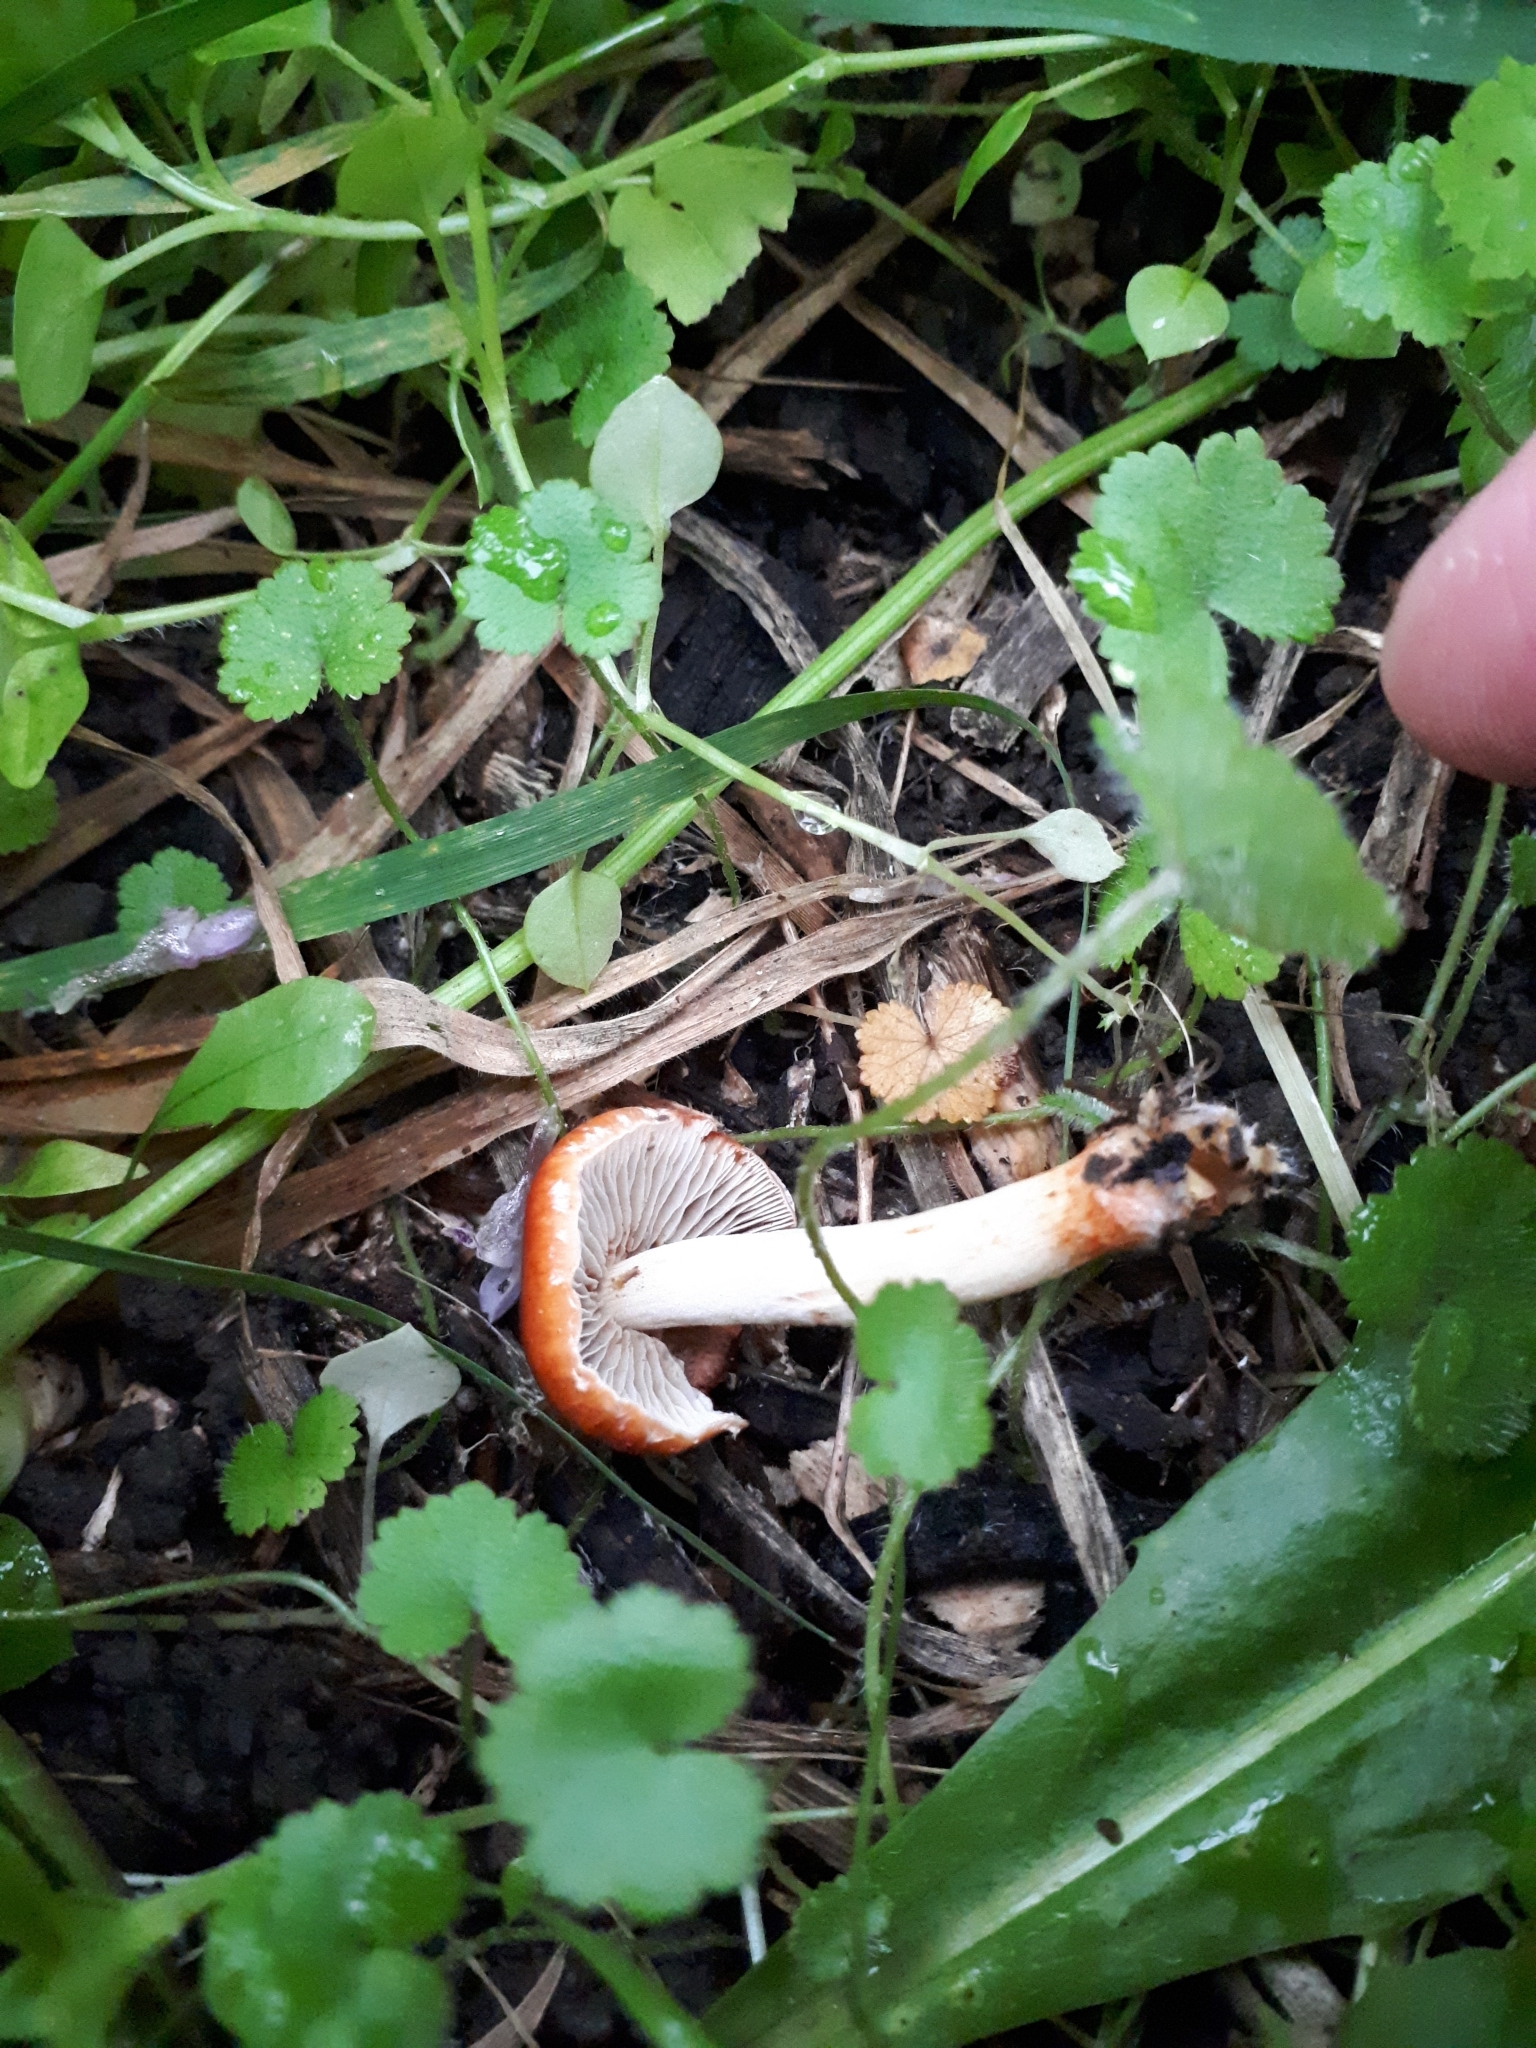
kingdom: Fungi
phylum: Basidiomycota
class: Agaricomycetes
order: Agaricales
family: Strophariaceae
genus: Leratiomyces
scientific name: Leratiomyces ceres
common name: Redlead roundhead
